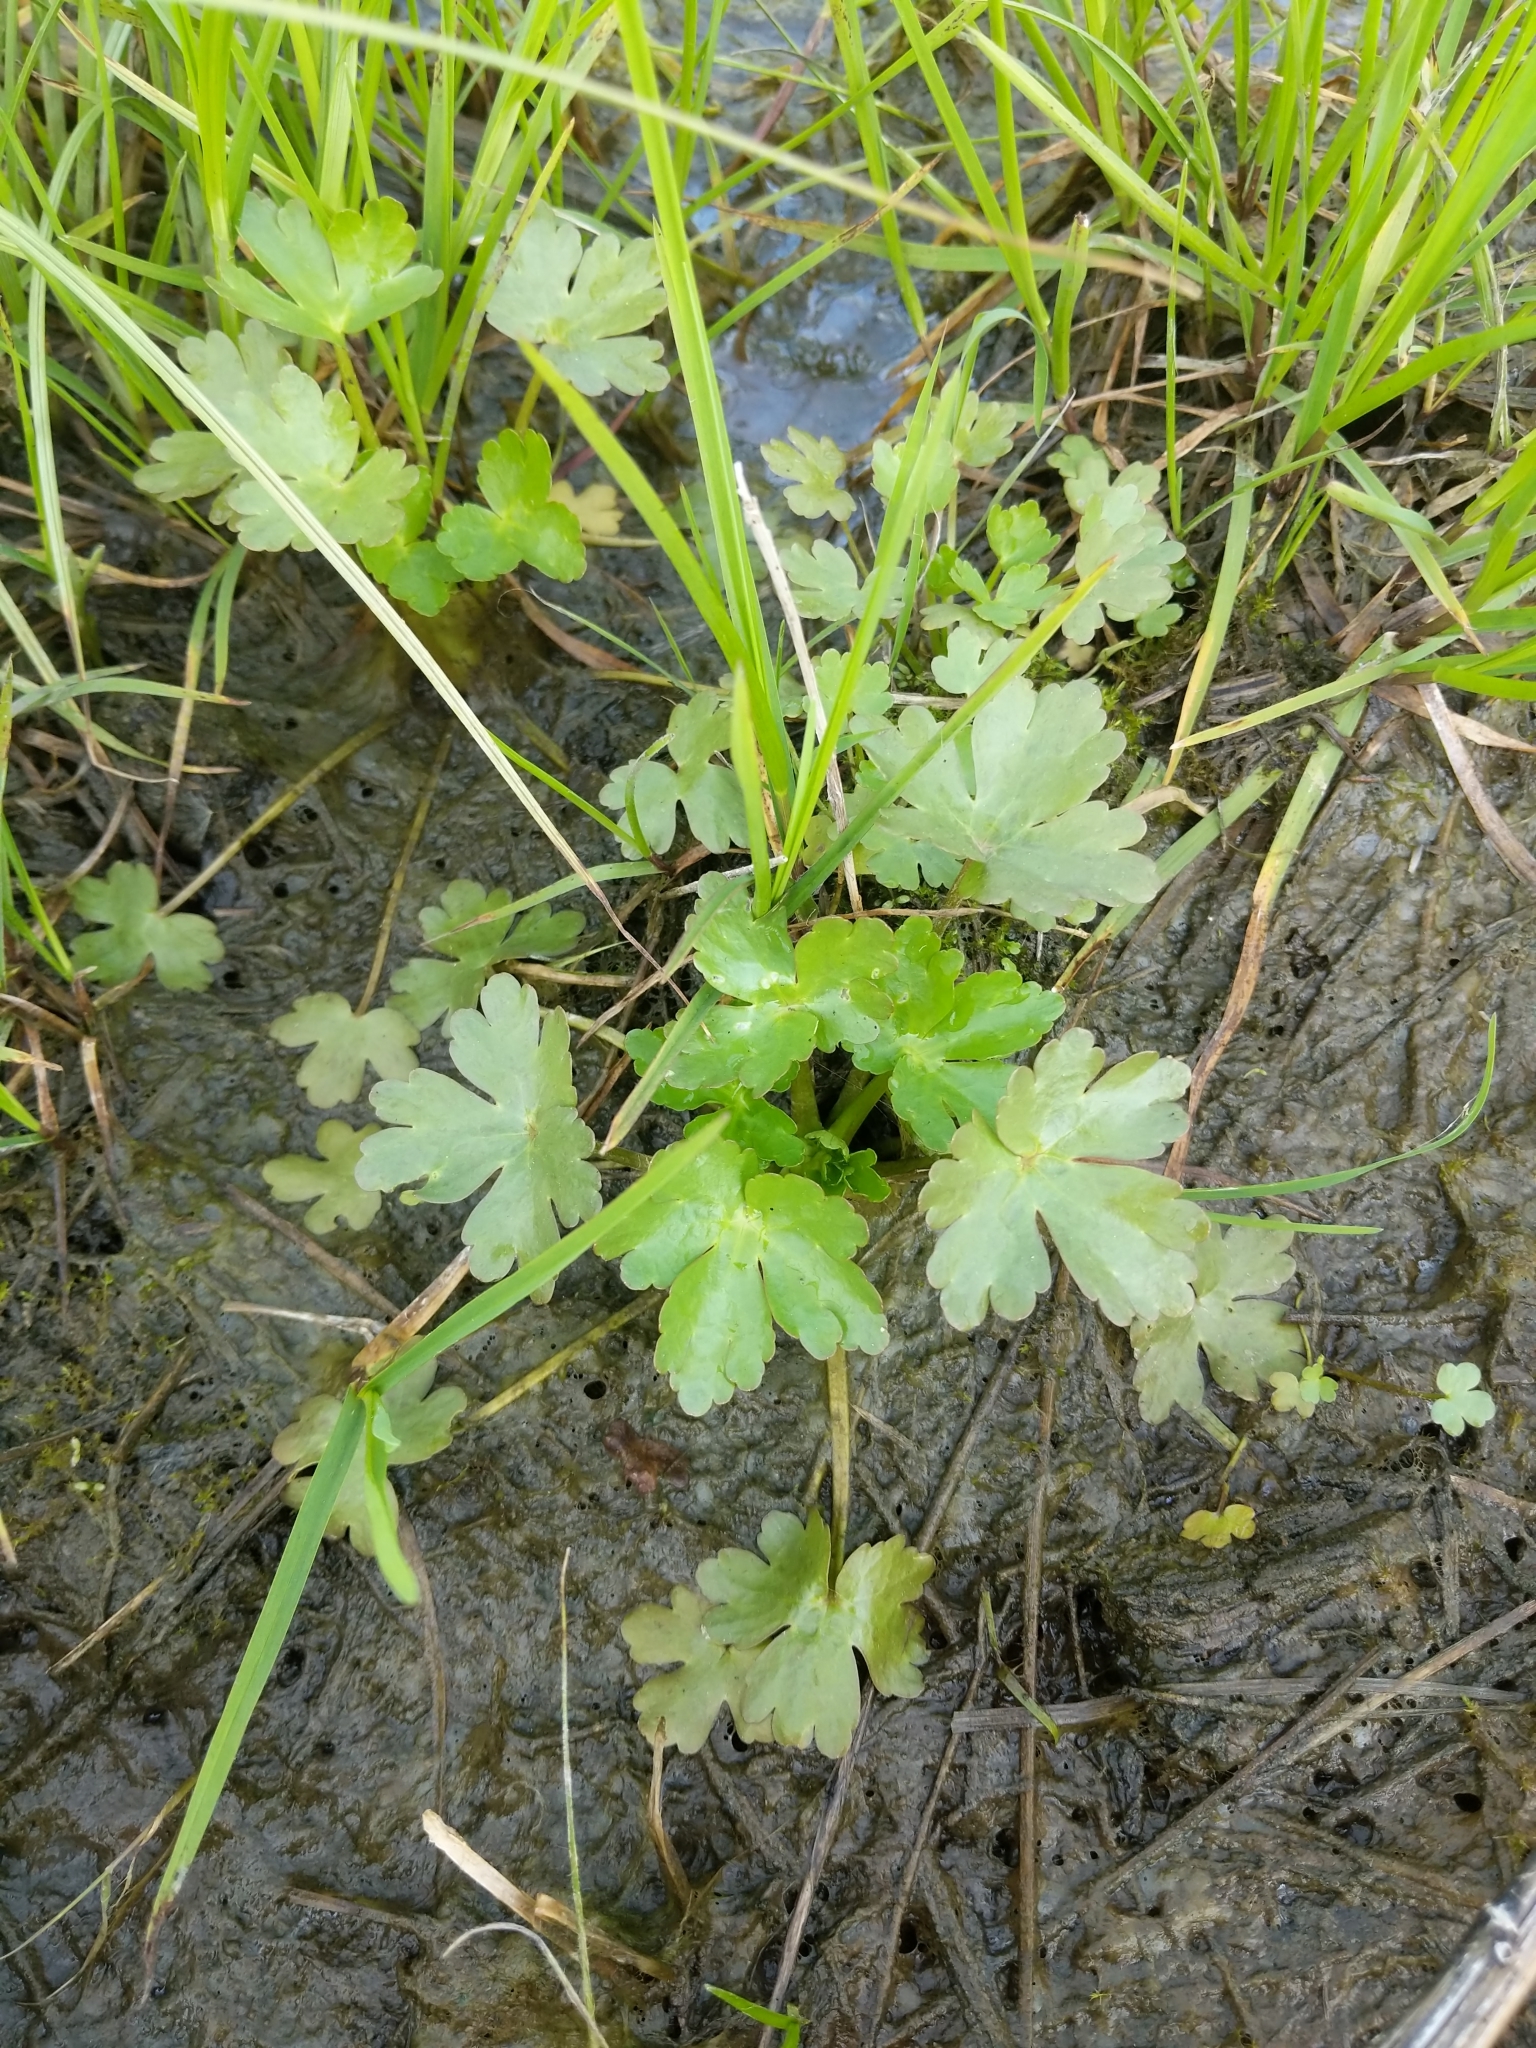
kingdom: Plantae
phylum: Tracheophyta
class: Magnoliopsida
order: Ranunculales
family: Ranunculaceae
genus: Ranunculus
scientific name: Ranunculus sceleratus
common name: Celery-leaved buttercup
